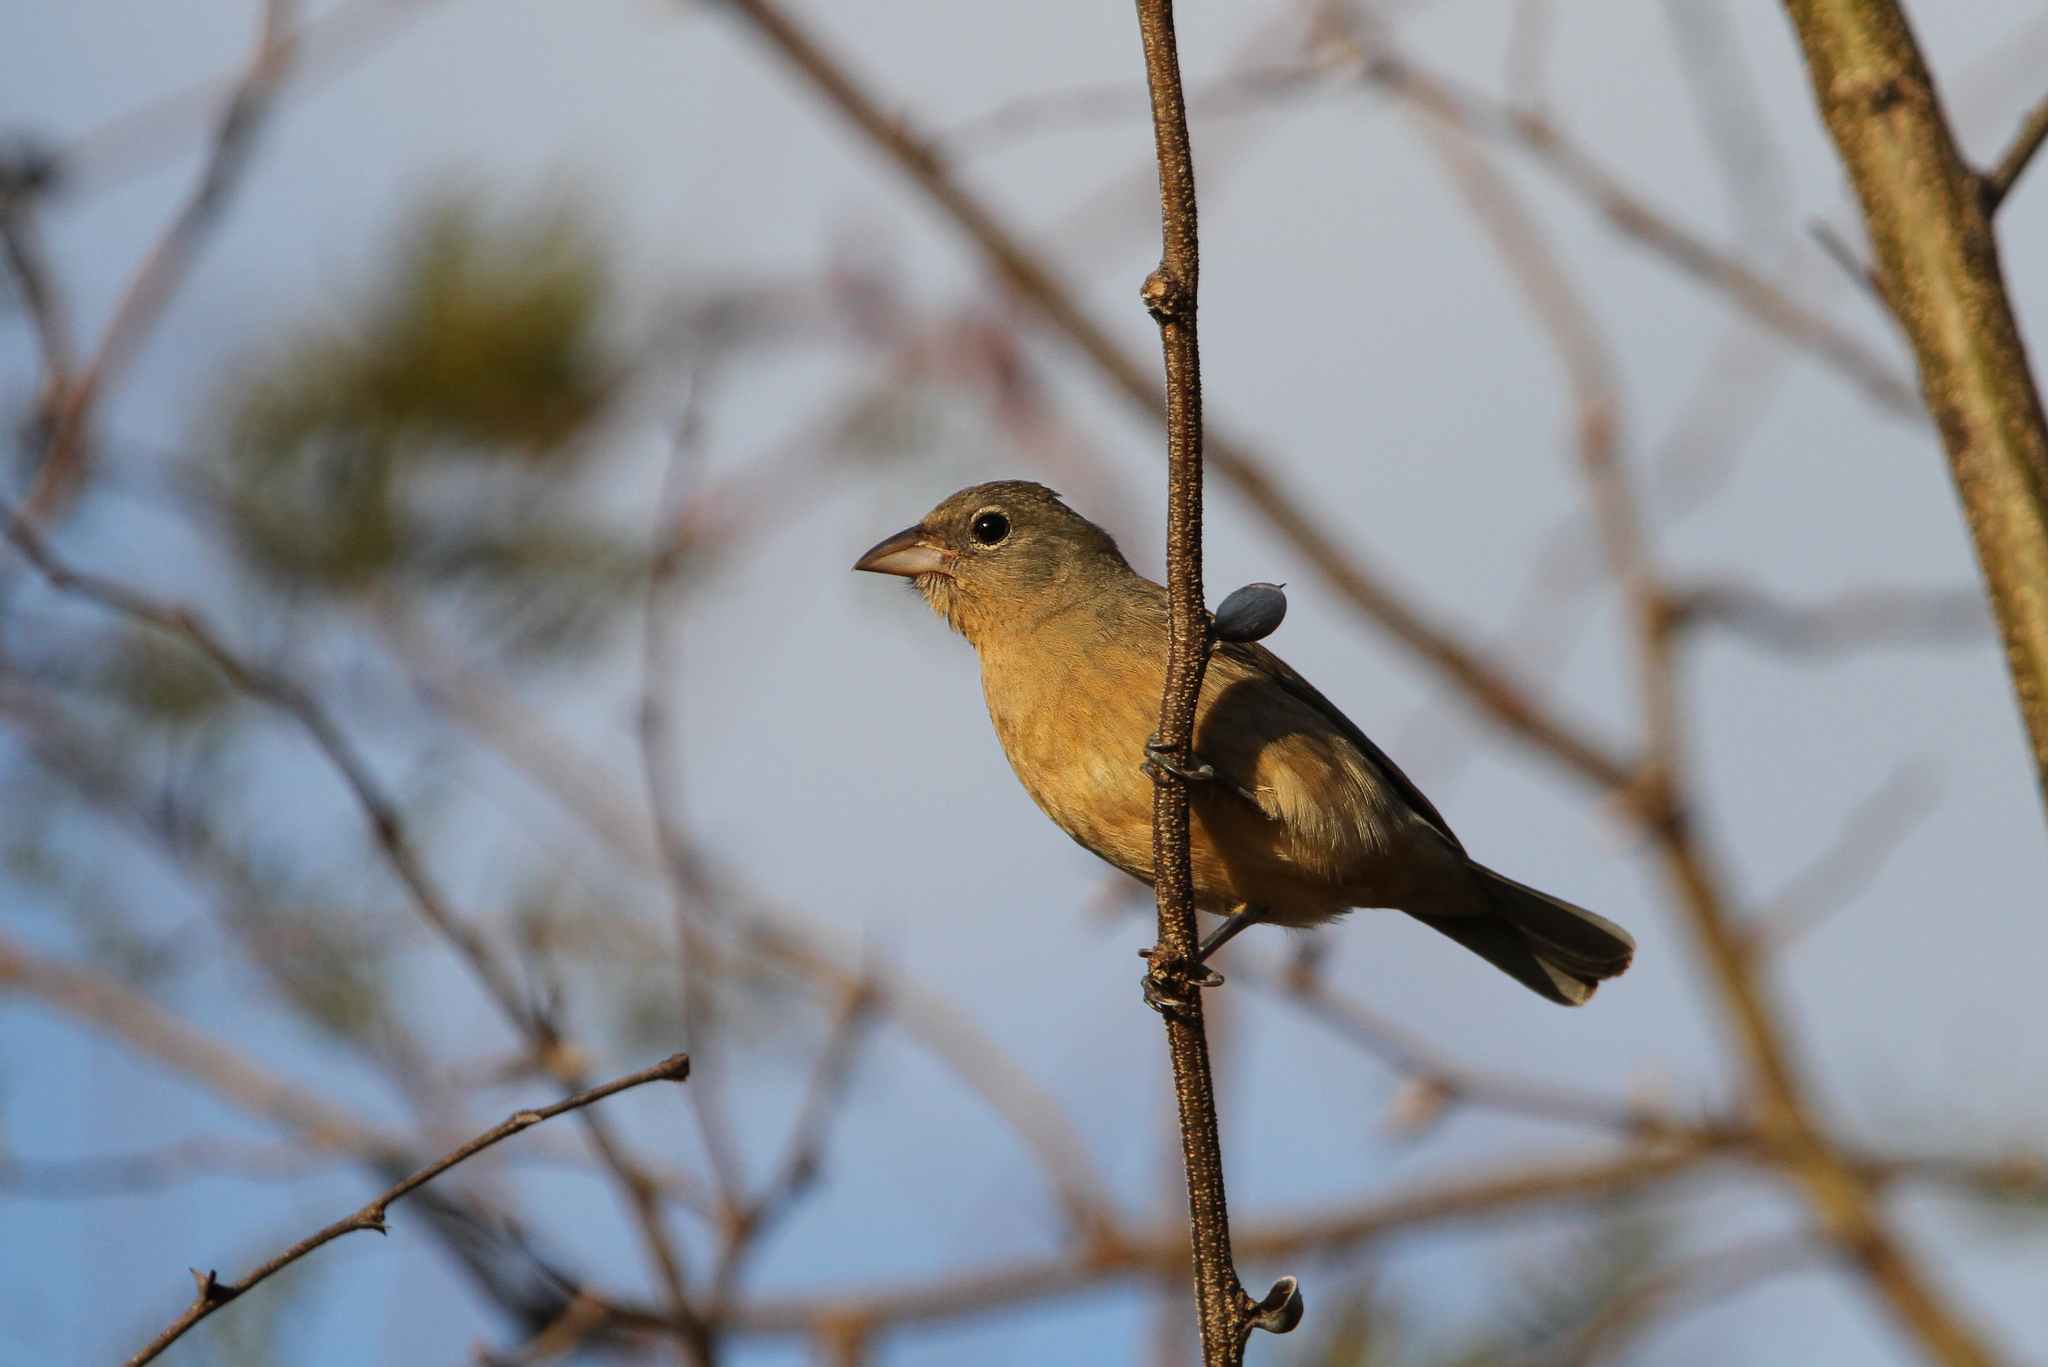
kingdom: Animalia
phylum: Chordata
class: Aves
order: Passeriformes
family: Cardinalidae
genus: Passerina
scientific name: Passerina rositae
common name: Rose-bellied bunting
